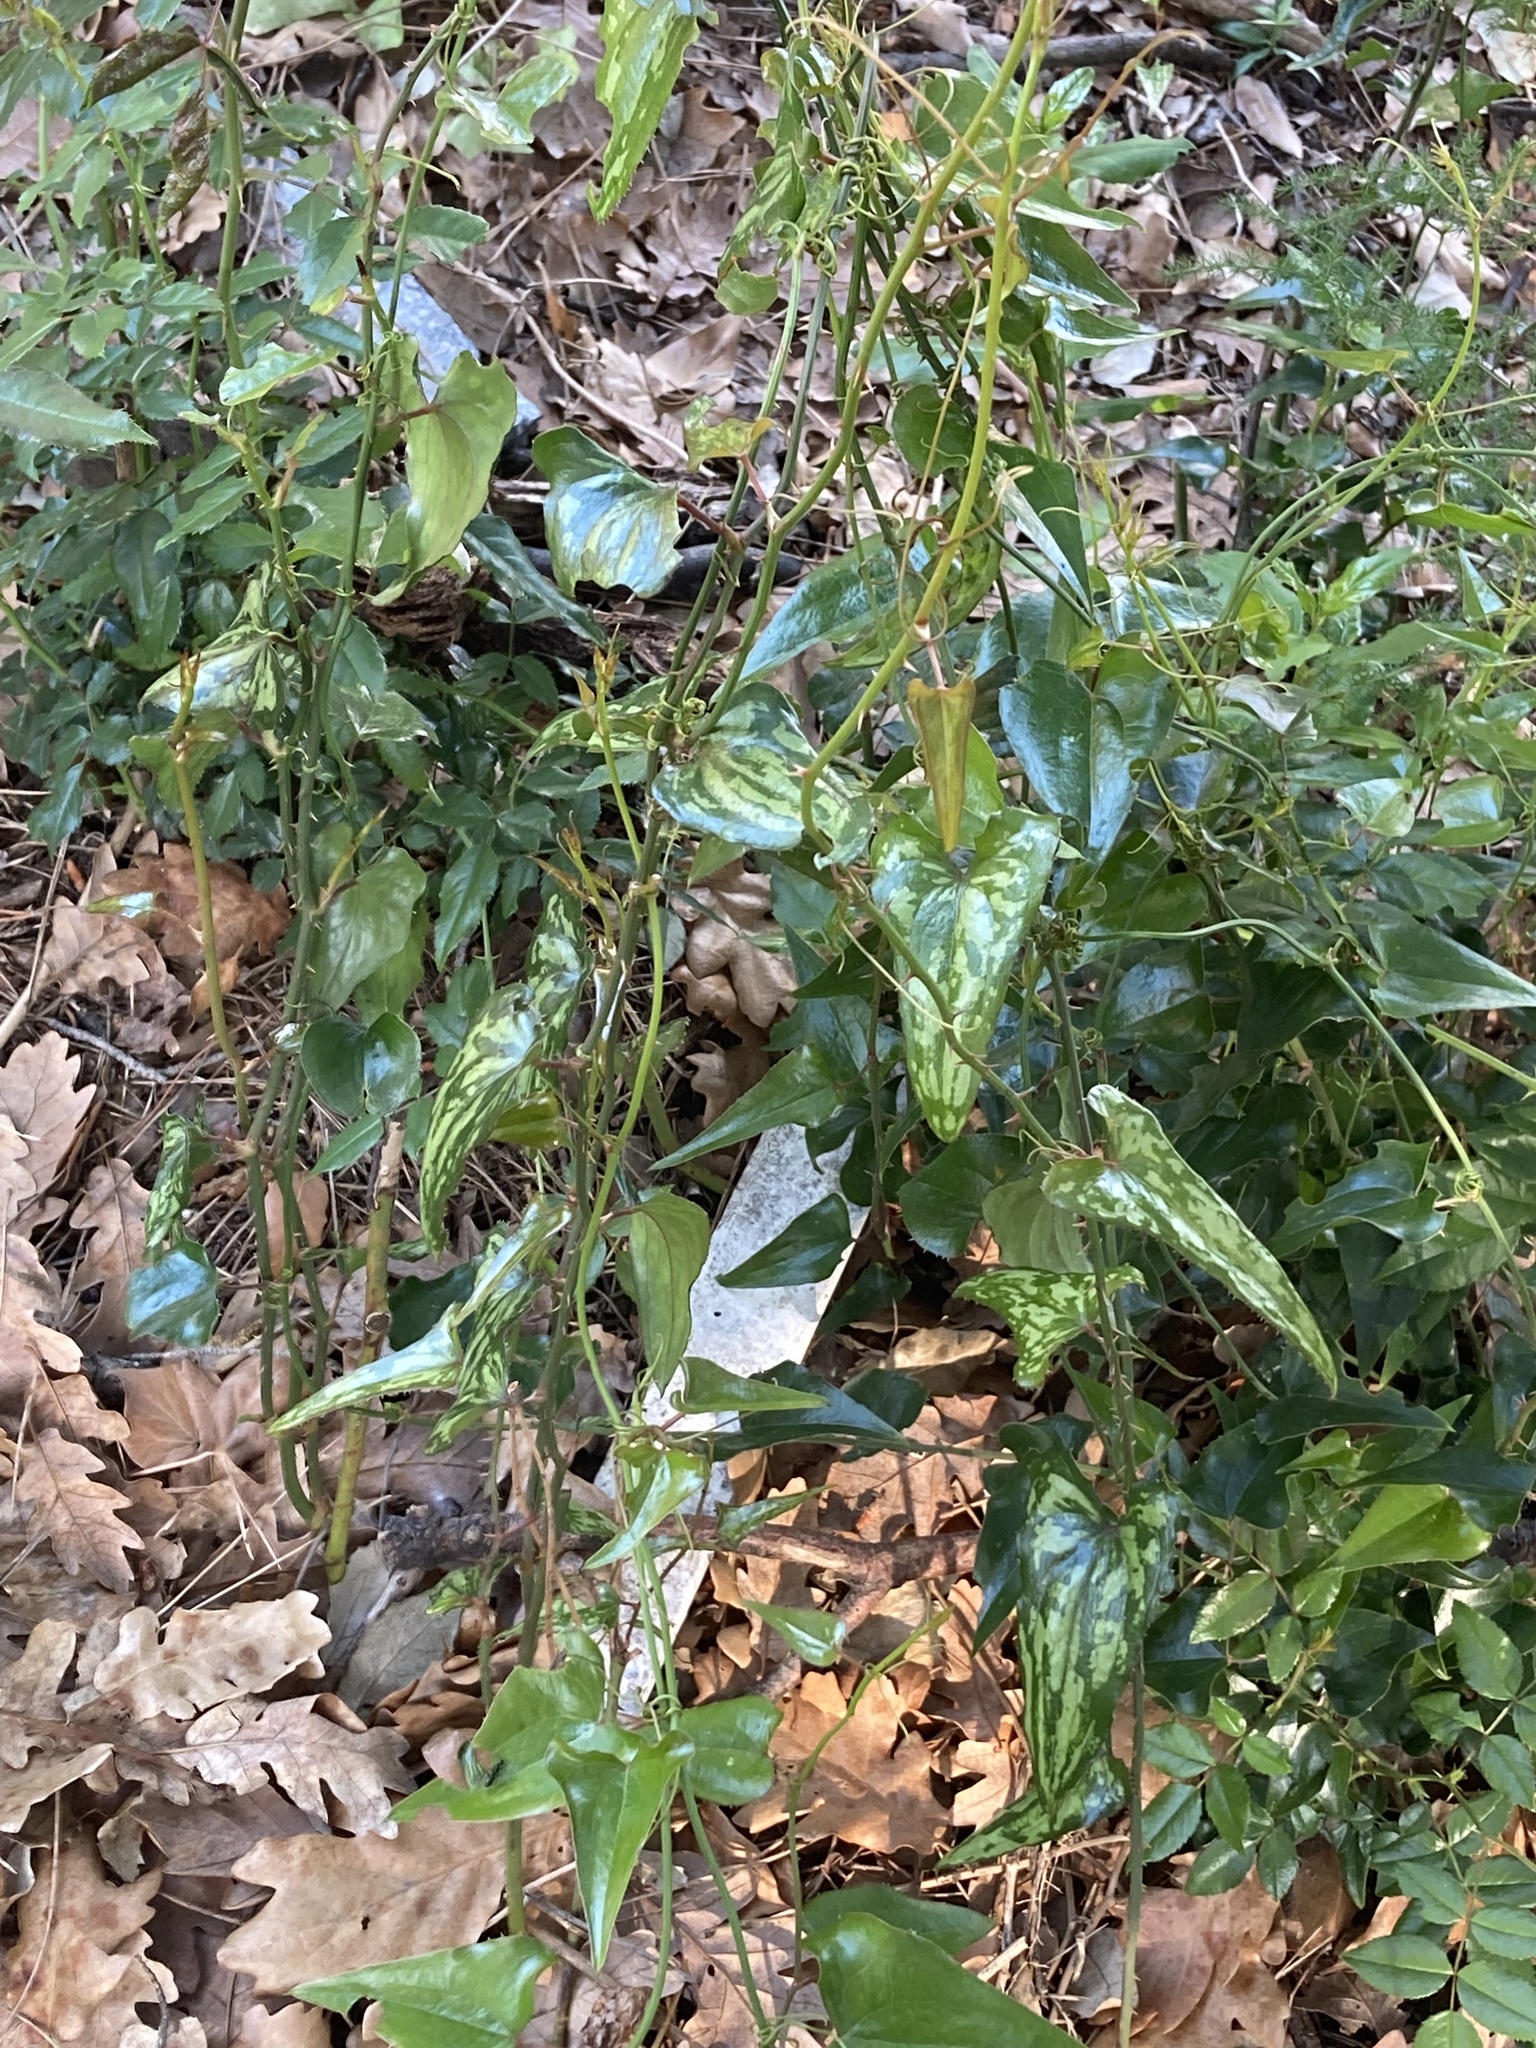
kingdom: Plantae
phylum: Tracheophyta
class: Liliopsida
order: Liliales
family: Smilacaceae
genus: Smilax
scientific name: Smilax aspera
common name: Common smilax
